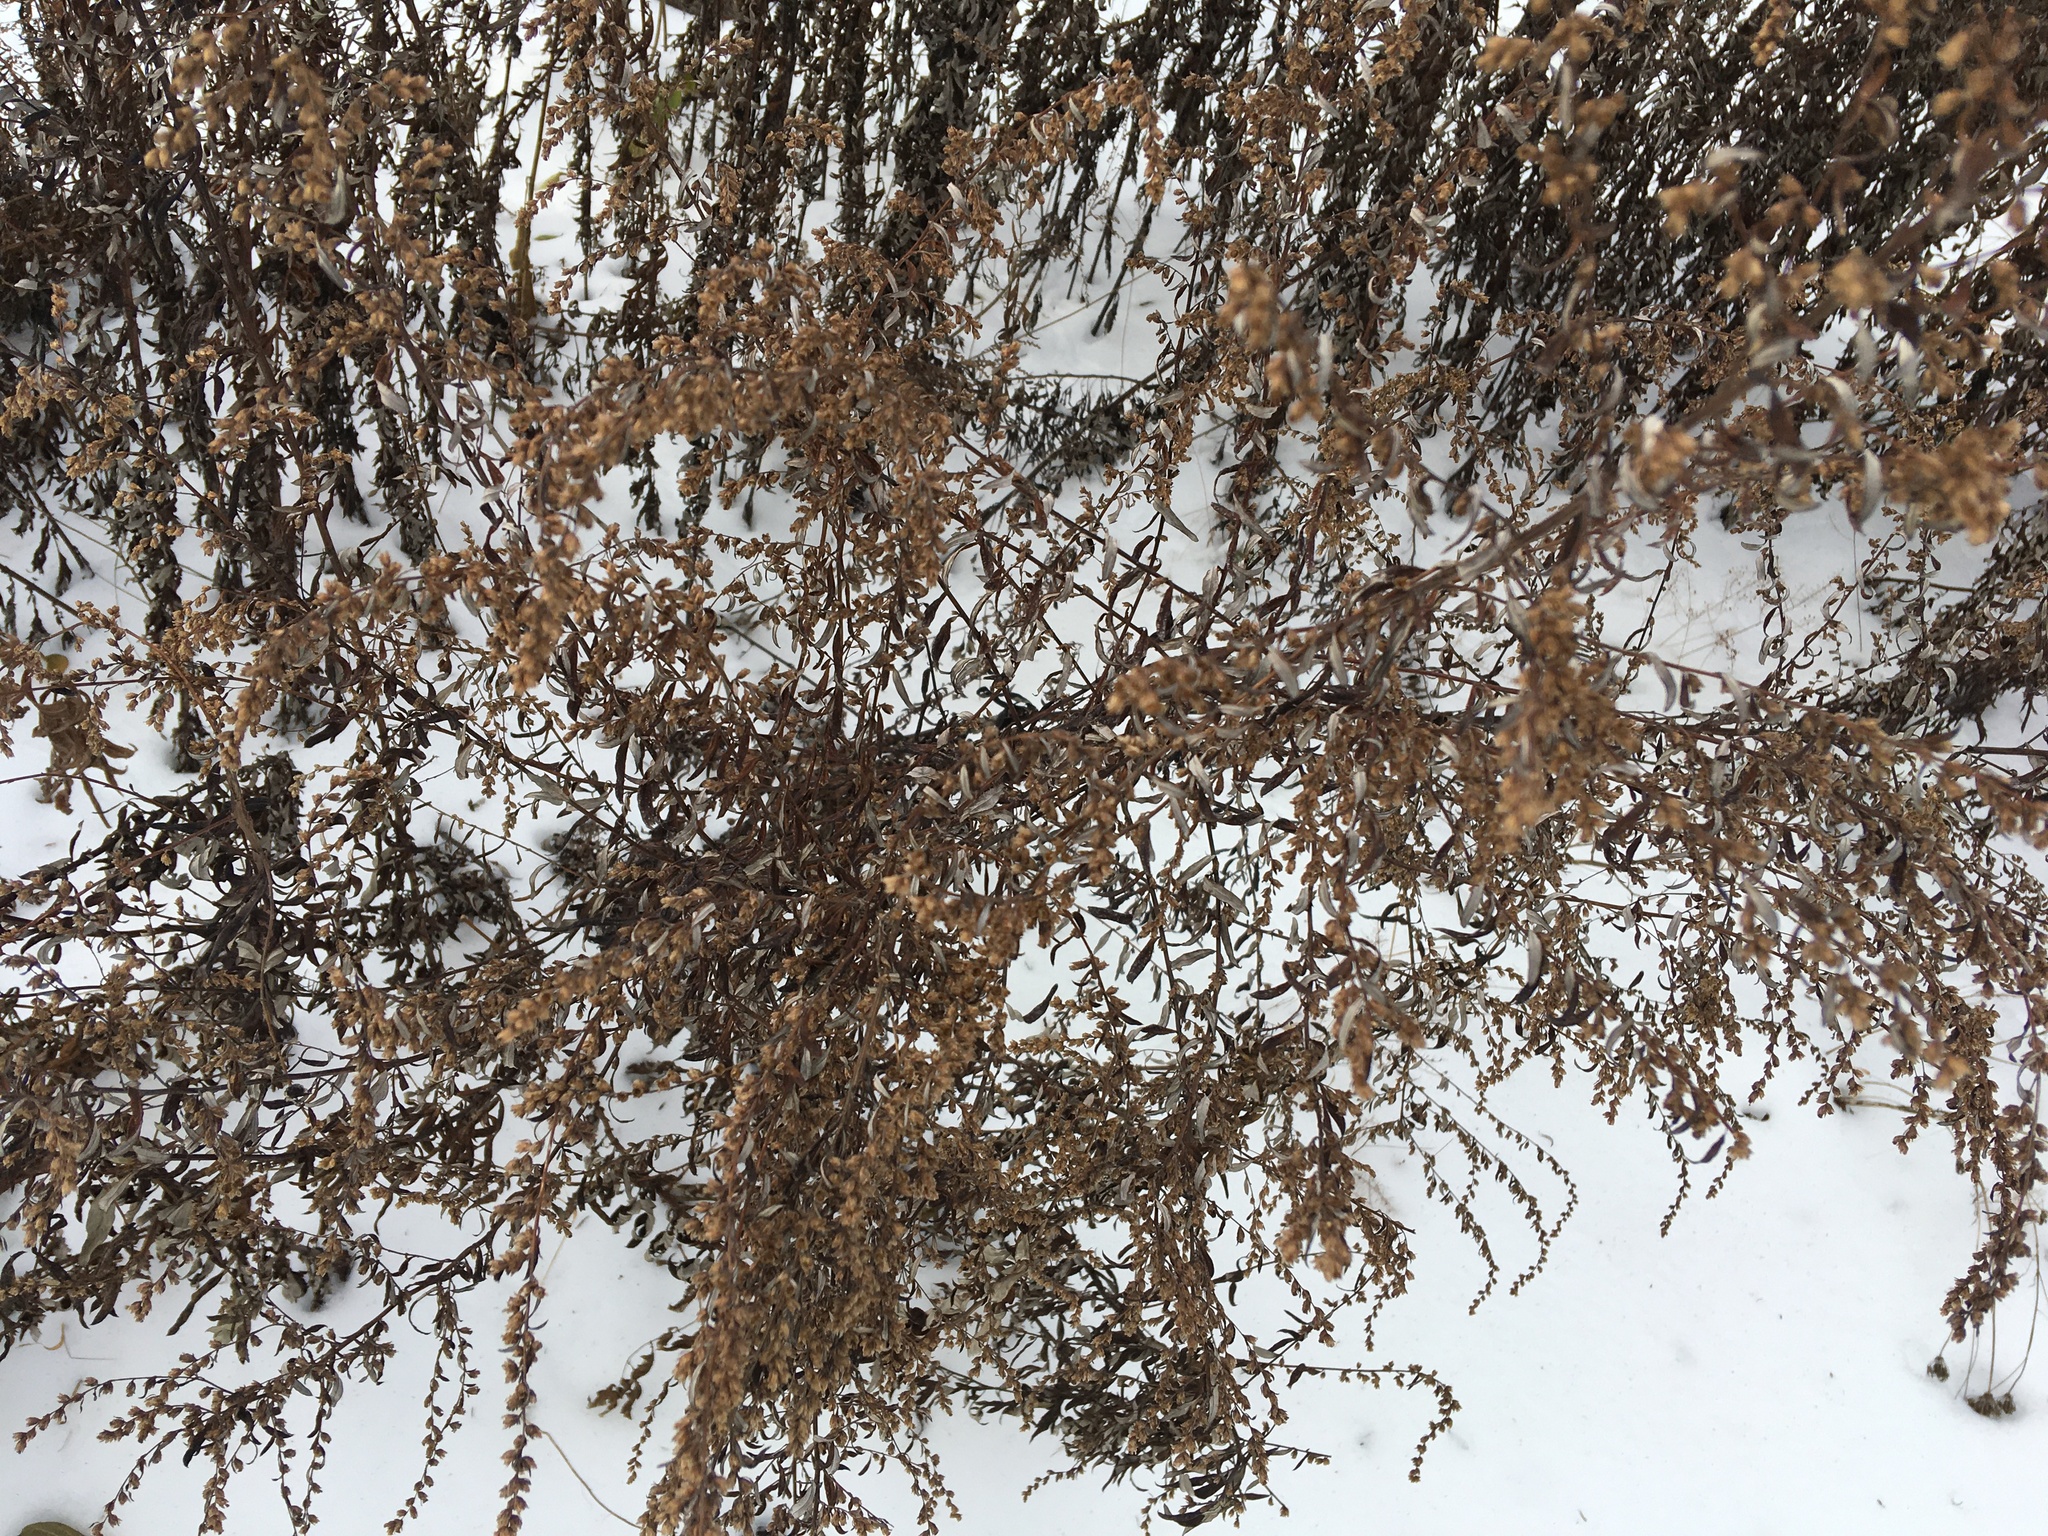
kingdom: Plantae
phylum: Tracheophyta
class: Magnoliopsida
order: Asterales
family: Asteraceae
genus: Artemisia
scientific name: Artemisia vulgaris
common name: Mugwort
